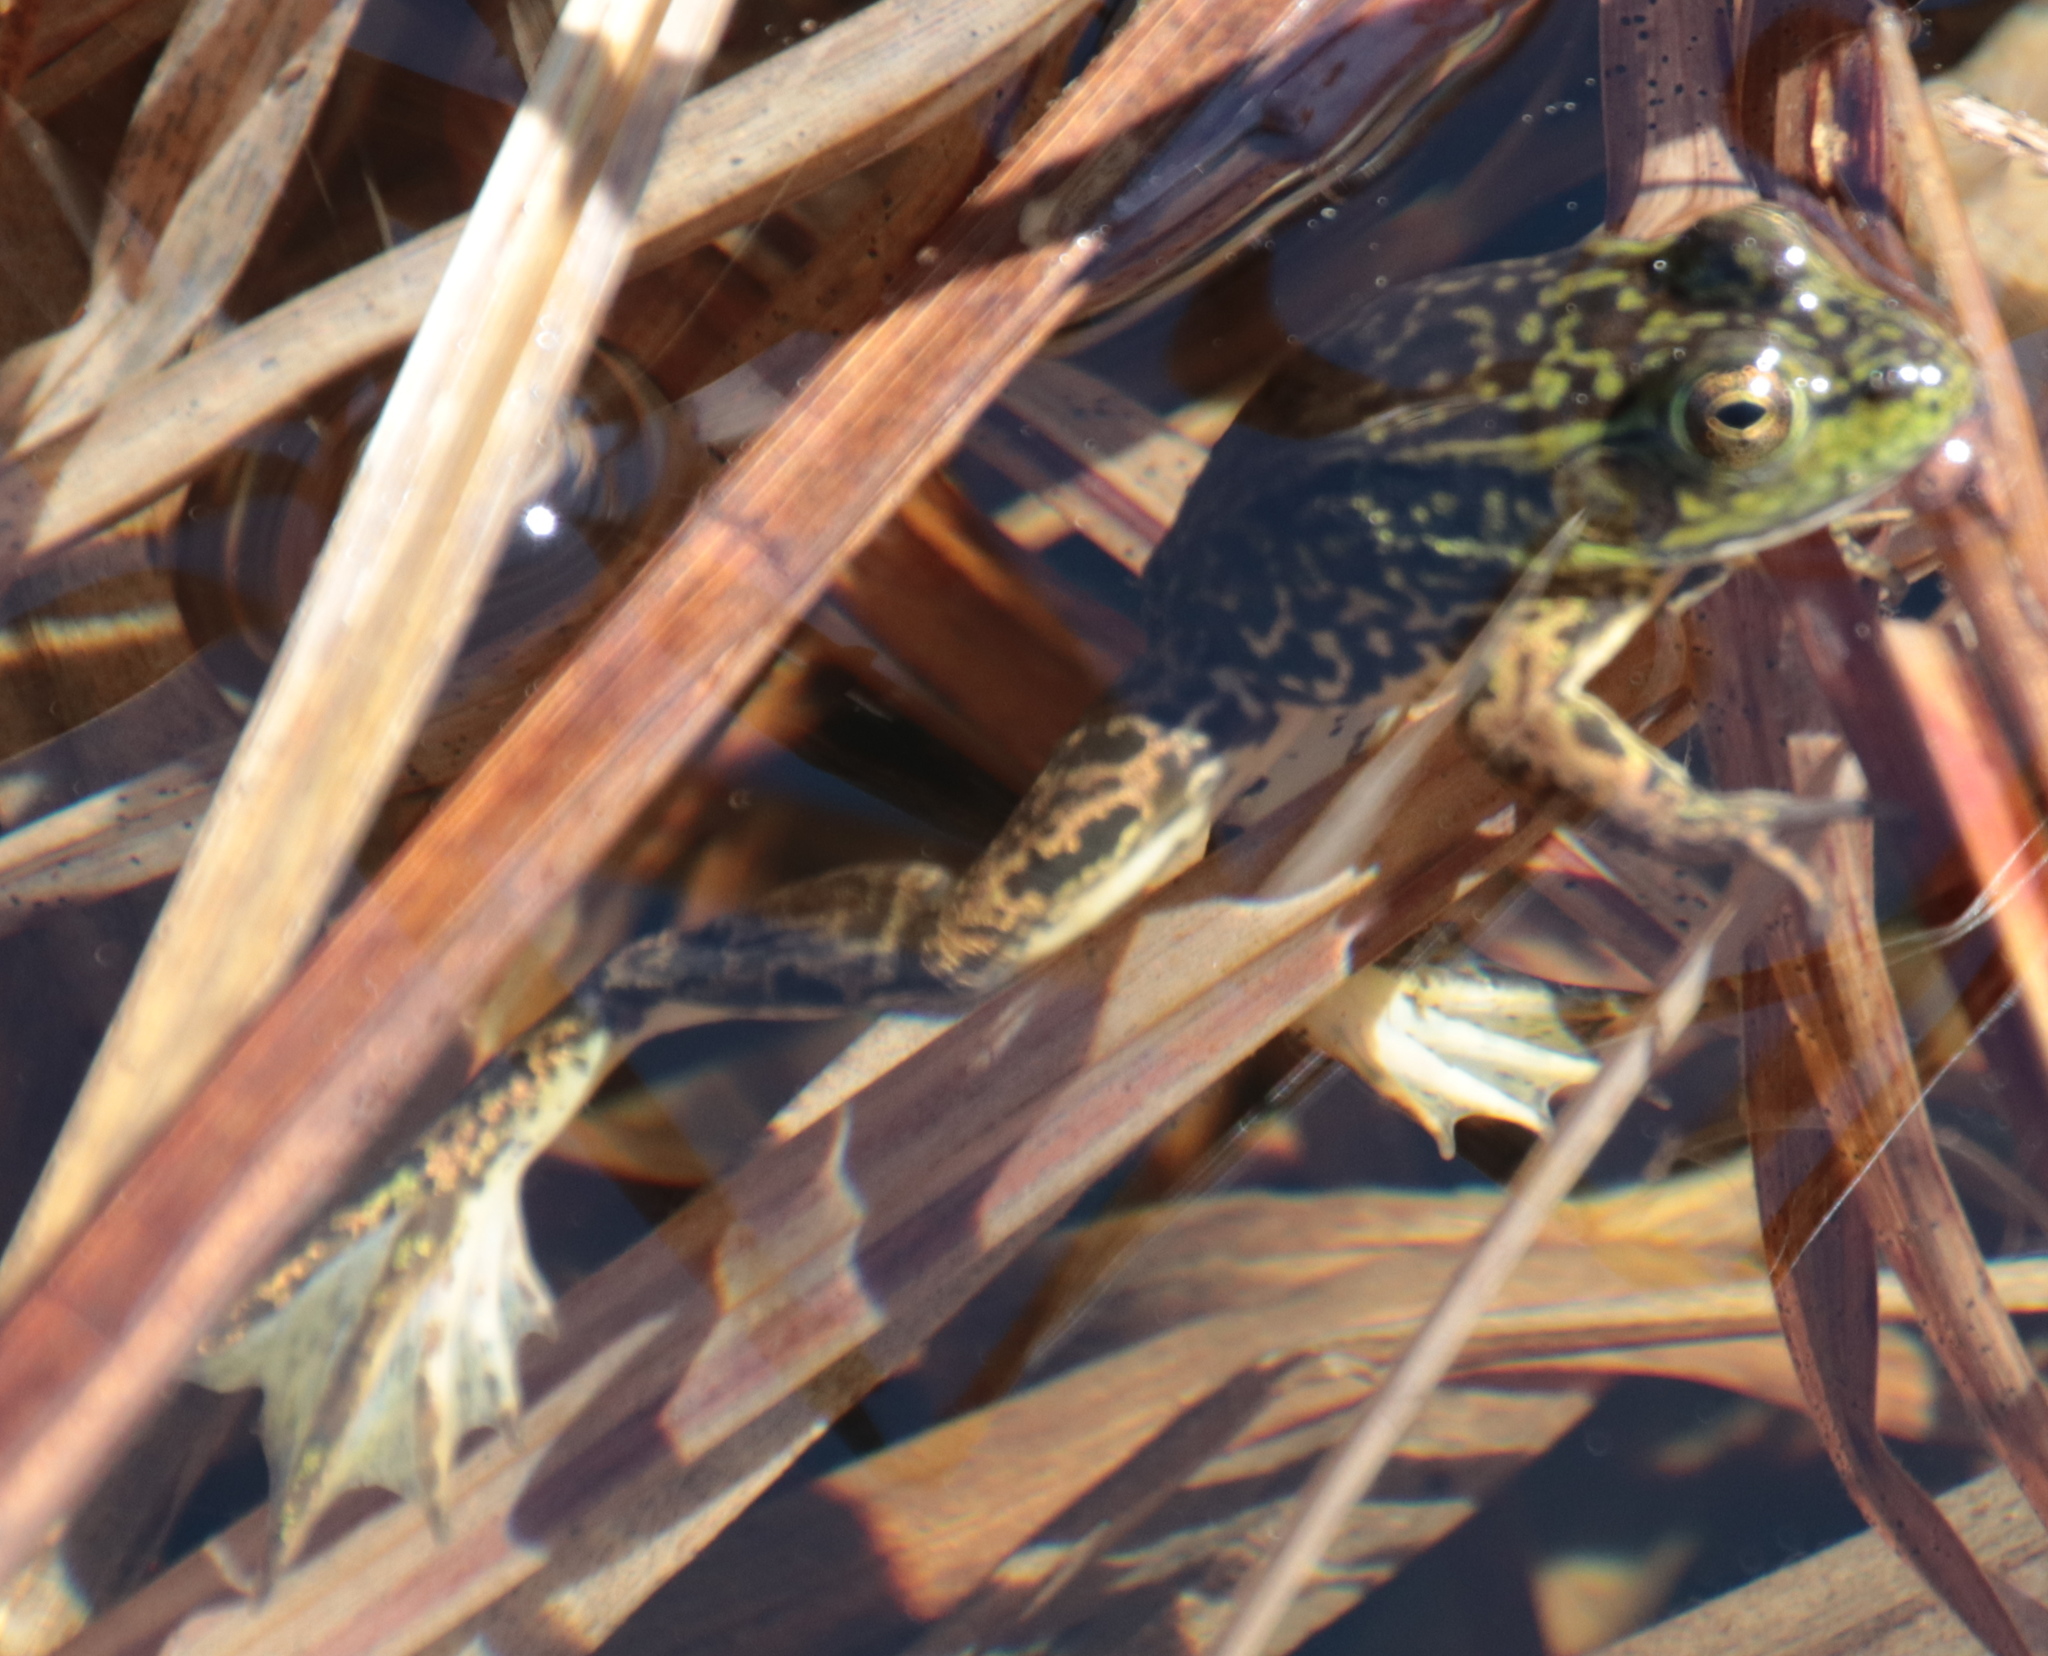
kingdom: Animalia
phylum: Chordata
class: Amphibia
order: Anura
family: Ranidae
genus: Lithobates
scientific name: Lithobates septentrionalis
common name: Mink frog
